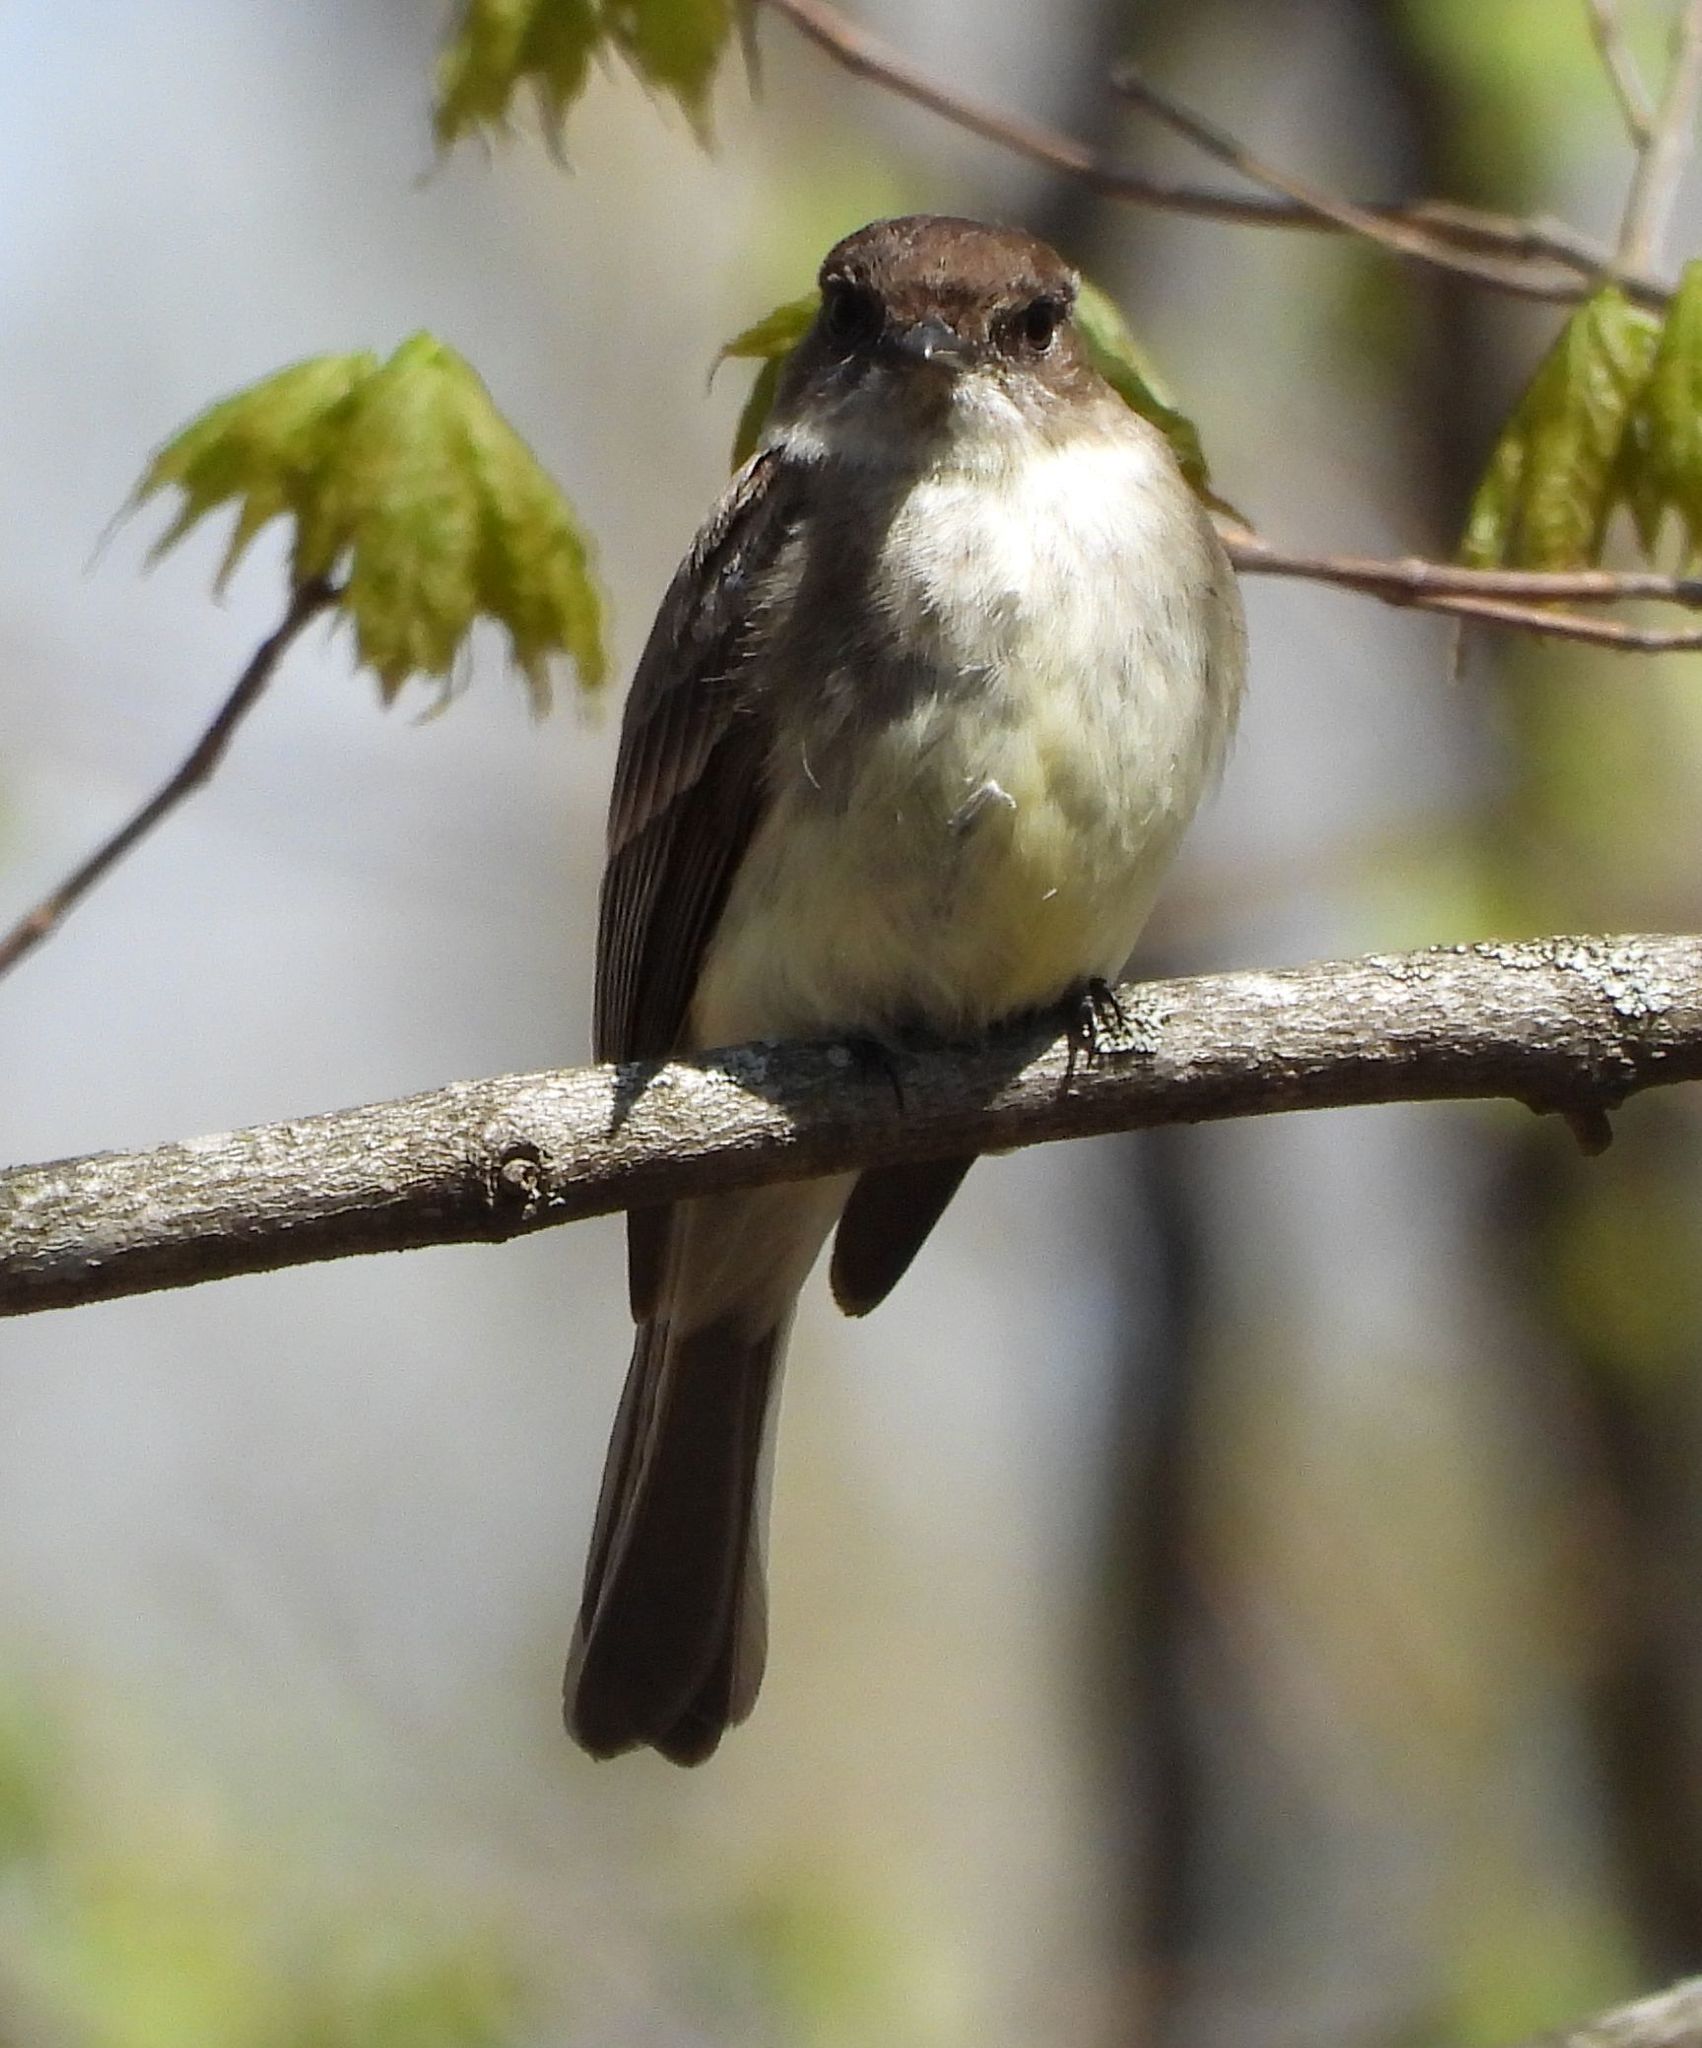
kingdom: Animalia
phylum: Chordata
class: Aves
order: Passeriformes
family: Tyrannidae
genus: Sayornis
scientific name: Sayornis phoebe
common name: Eastern phoebe
